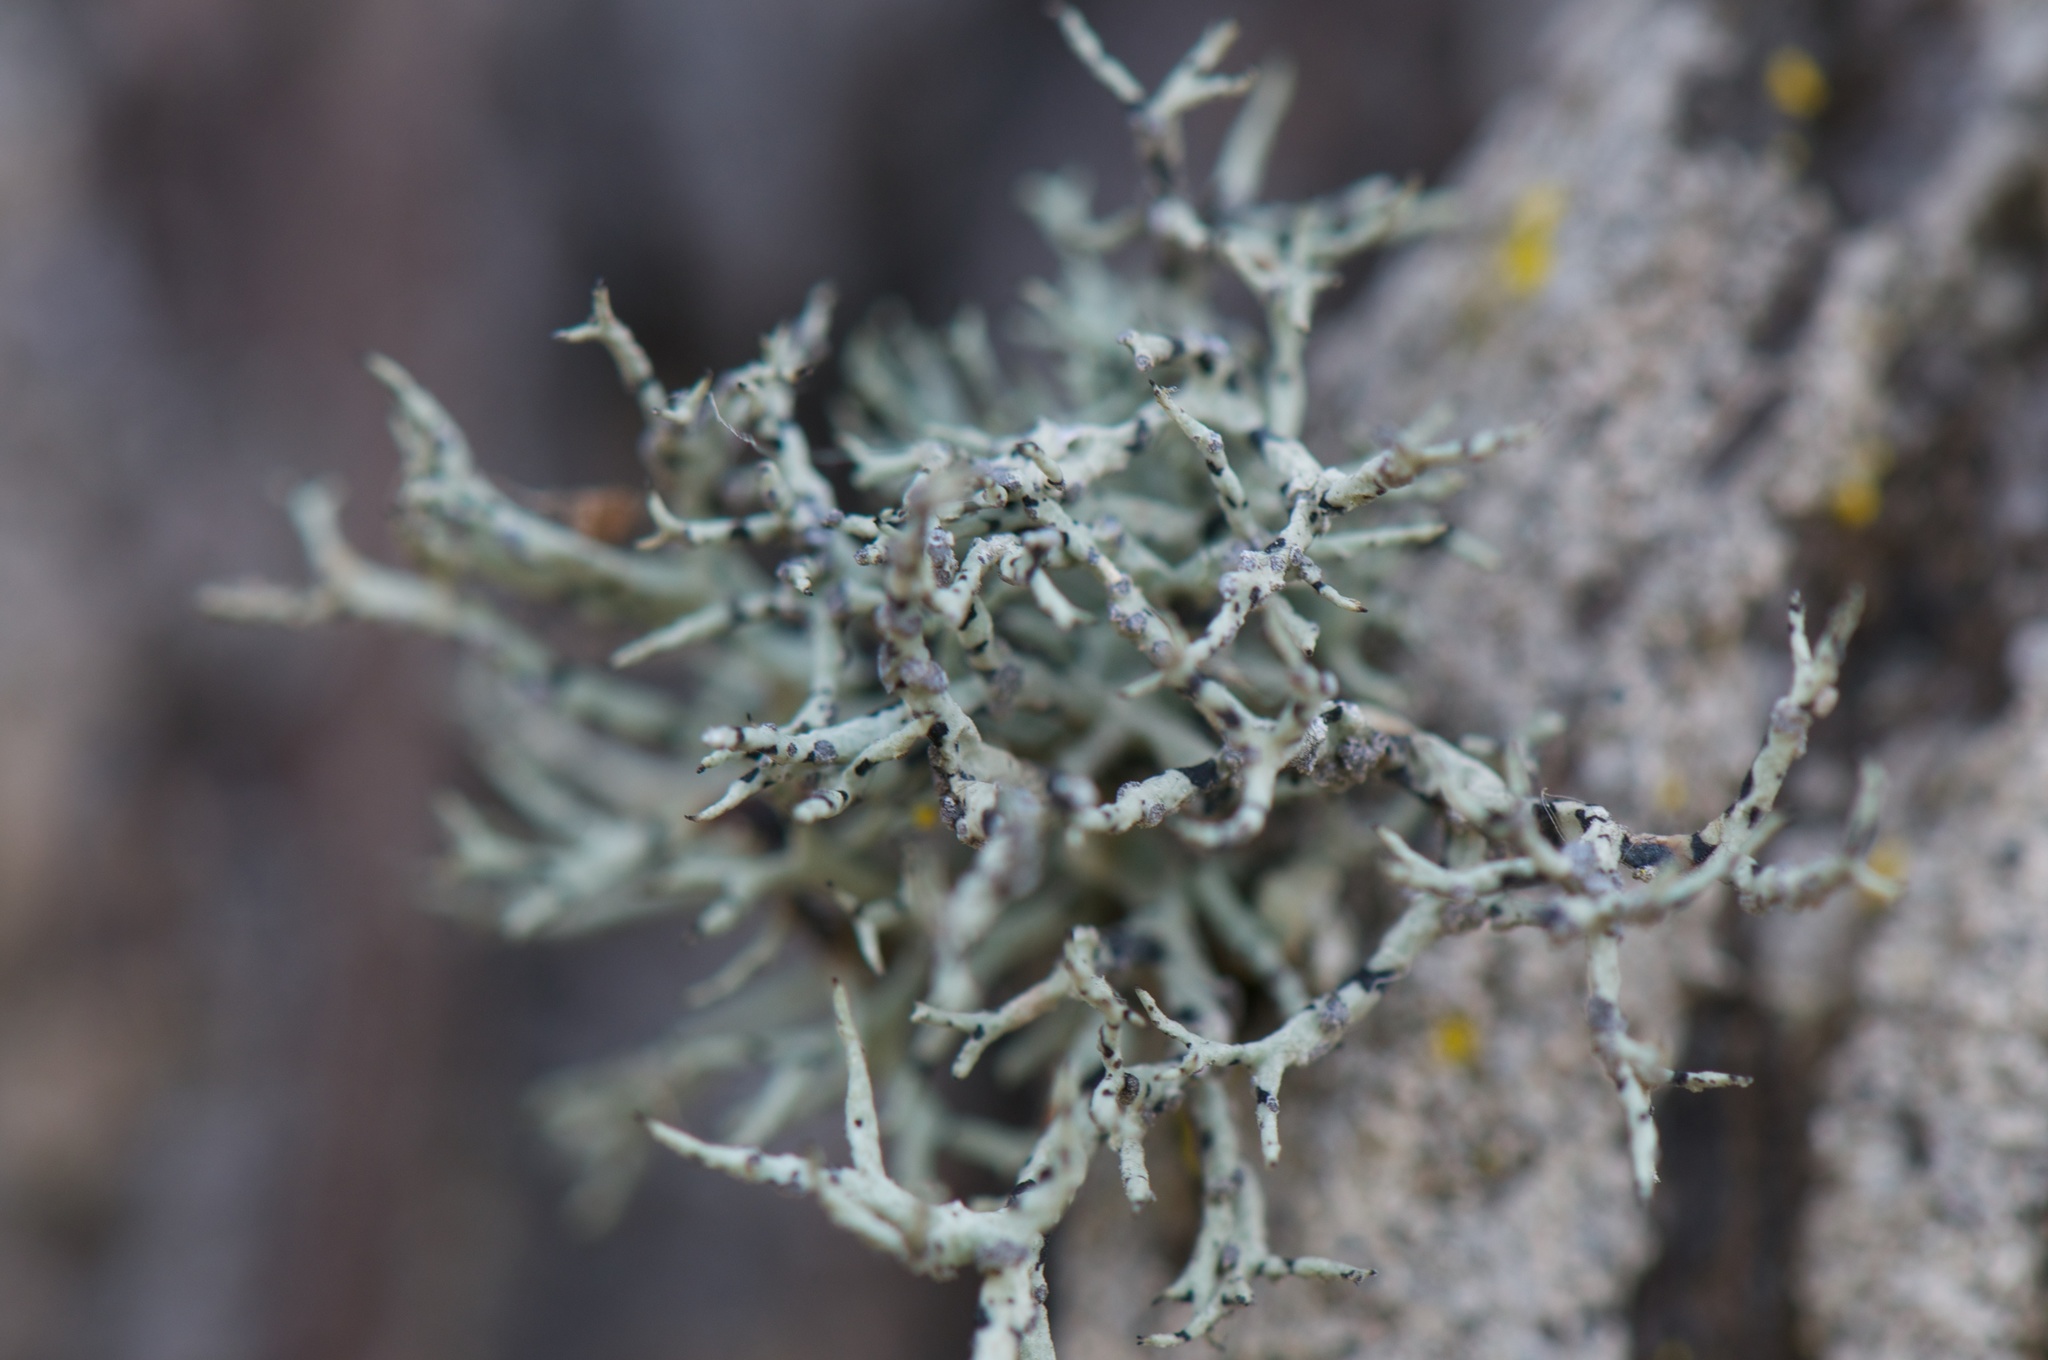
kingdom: Fungi
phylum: Ascomycota
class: Lecanoromycetes
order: Lecanorales
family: Ramalinaceae
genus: Niebla
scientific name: Niebla cephalota
